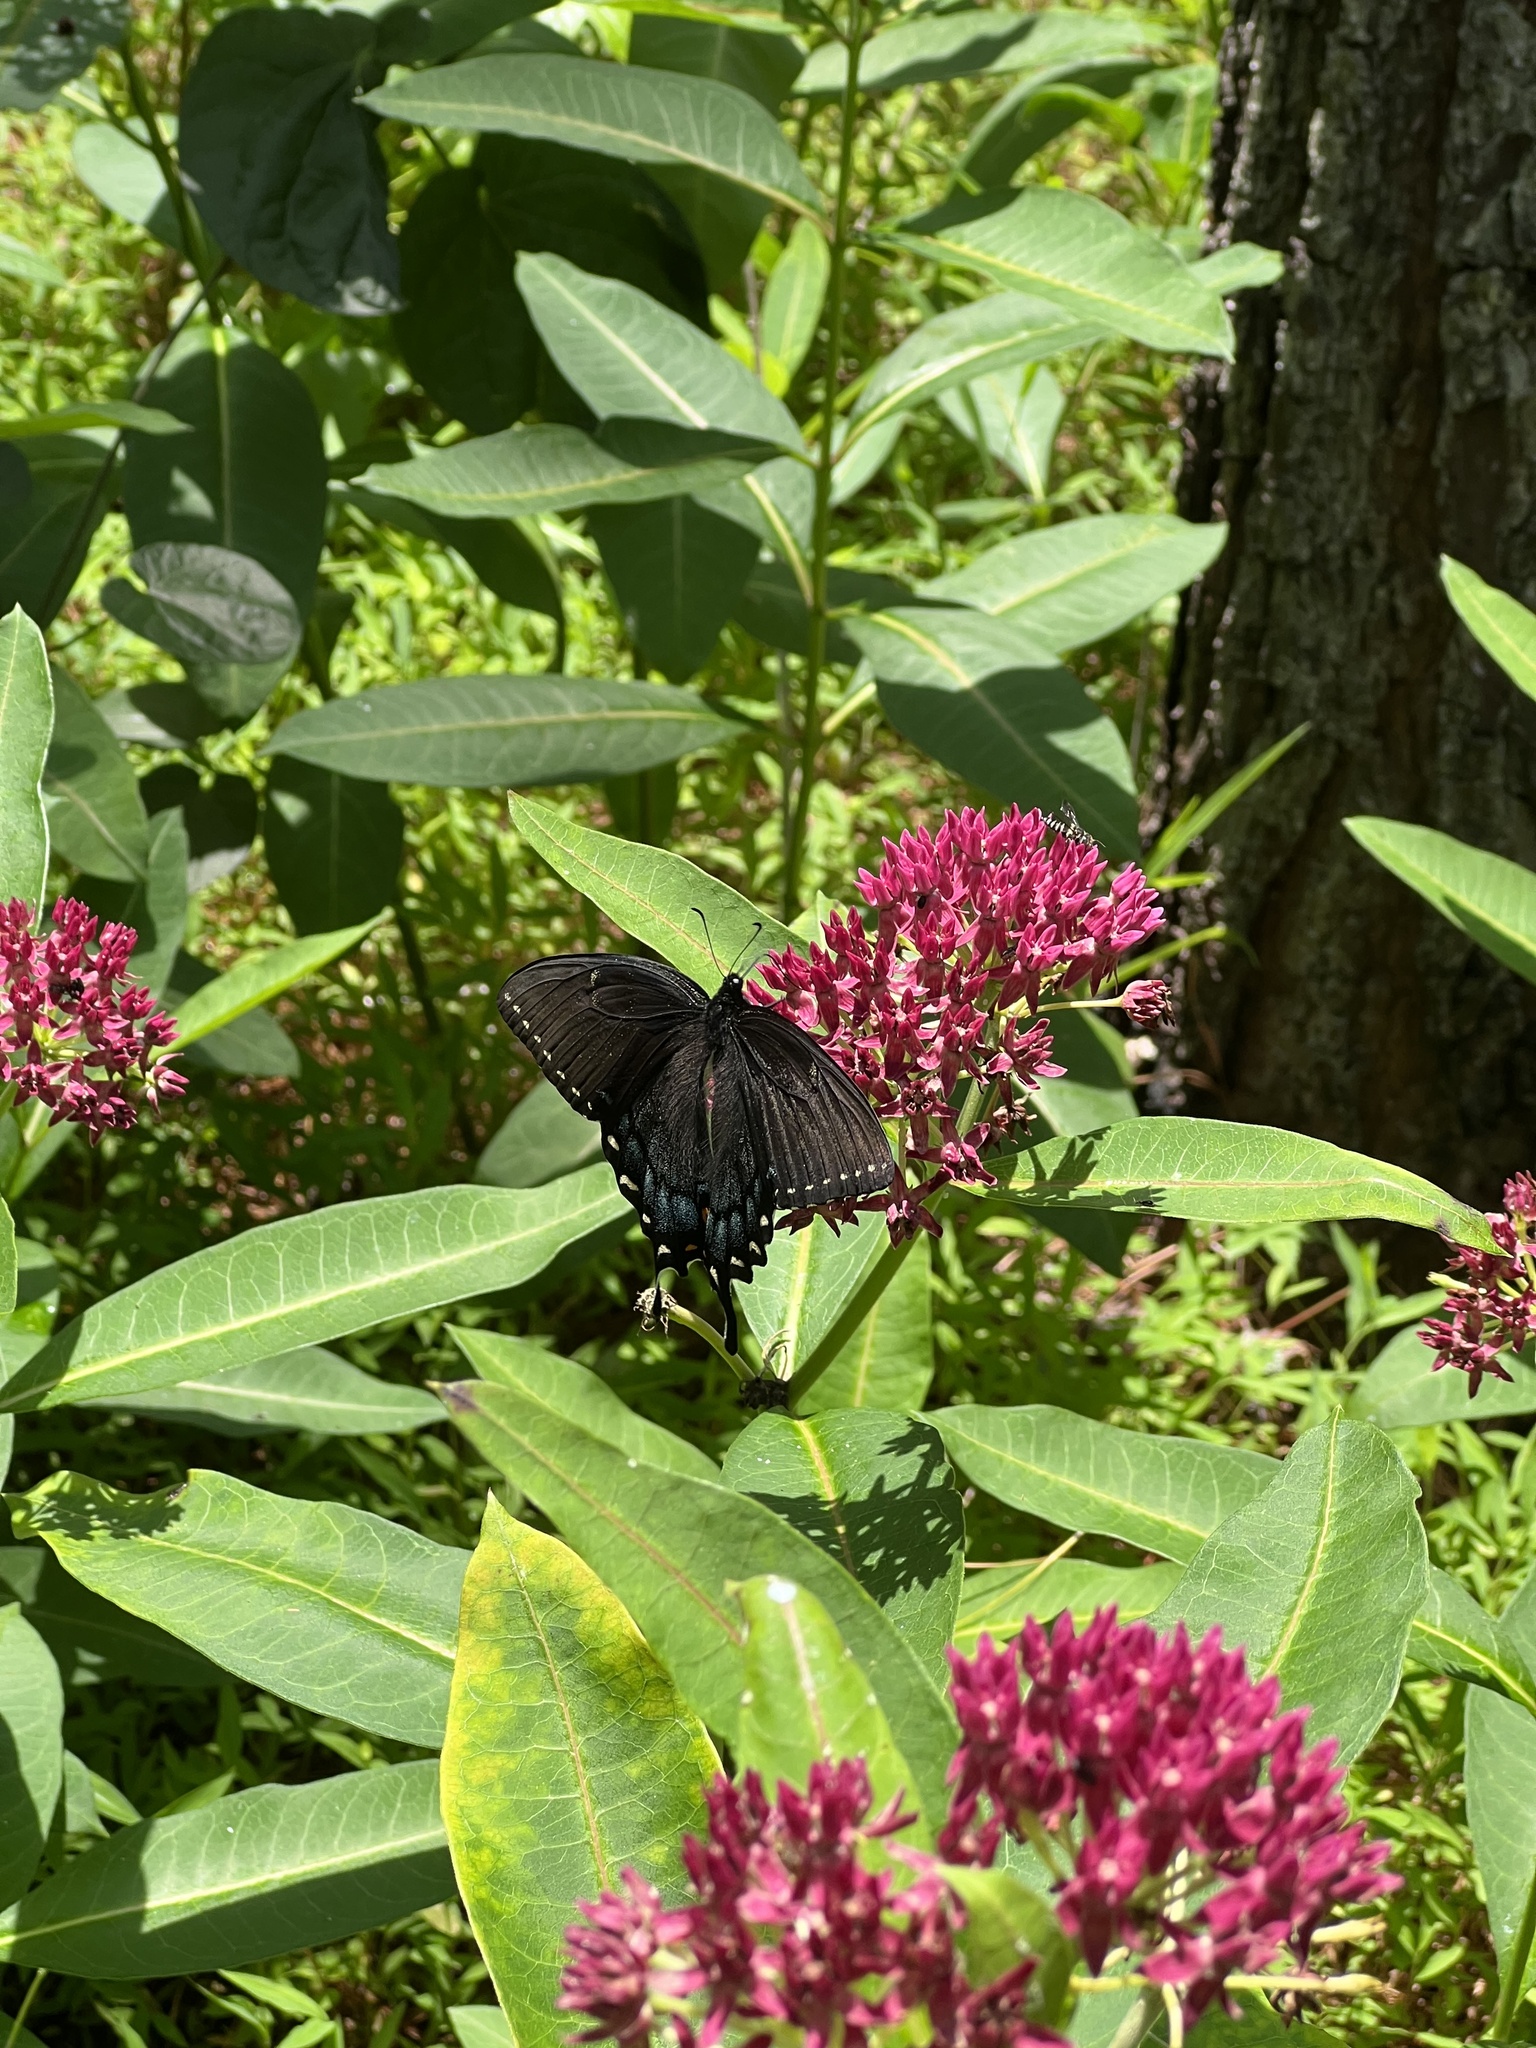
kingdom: Animalia
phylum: Arthropoda
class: Insecta
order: Lepidoptera
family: Papilionidae
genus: Papilio
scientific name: Papilio glaucus
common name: Tiger swallowtail
